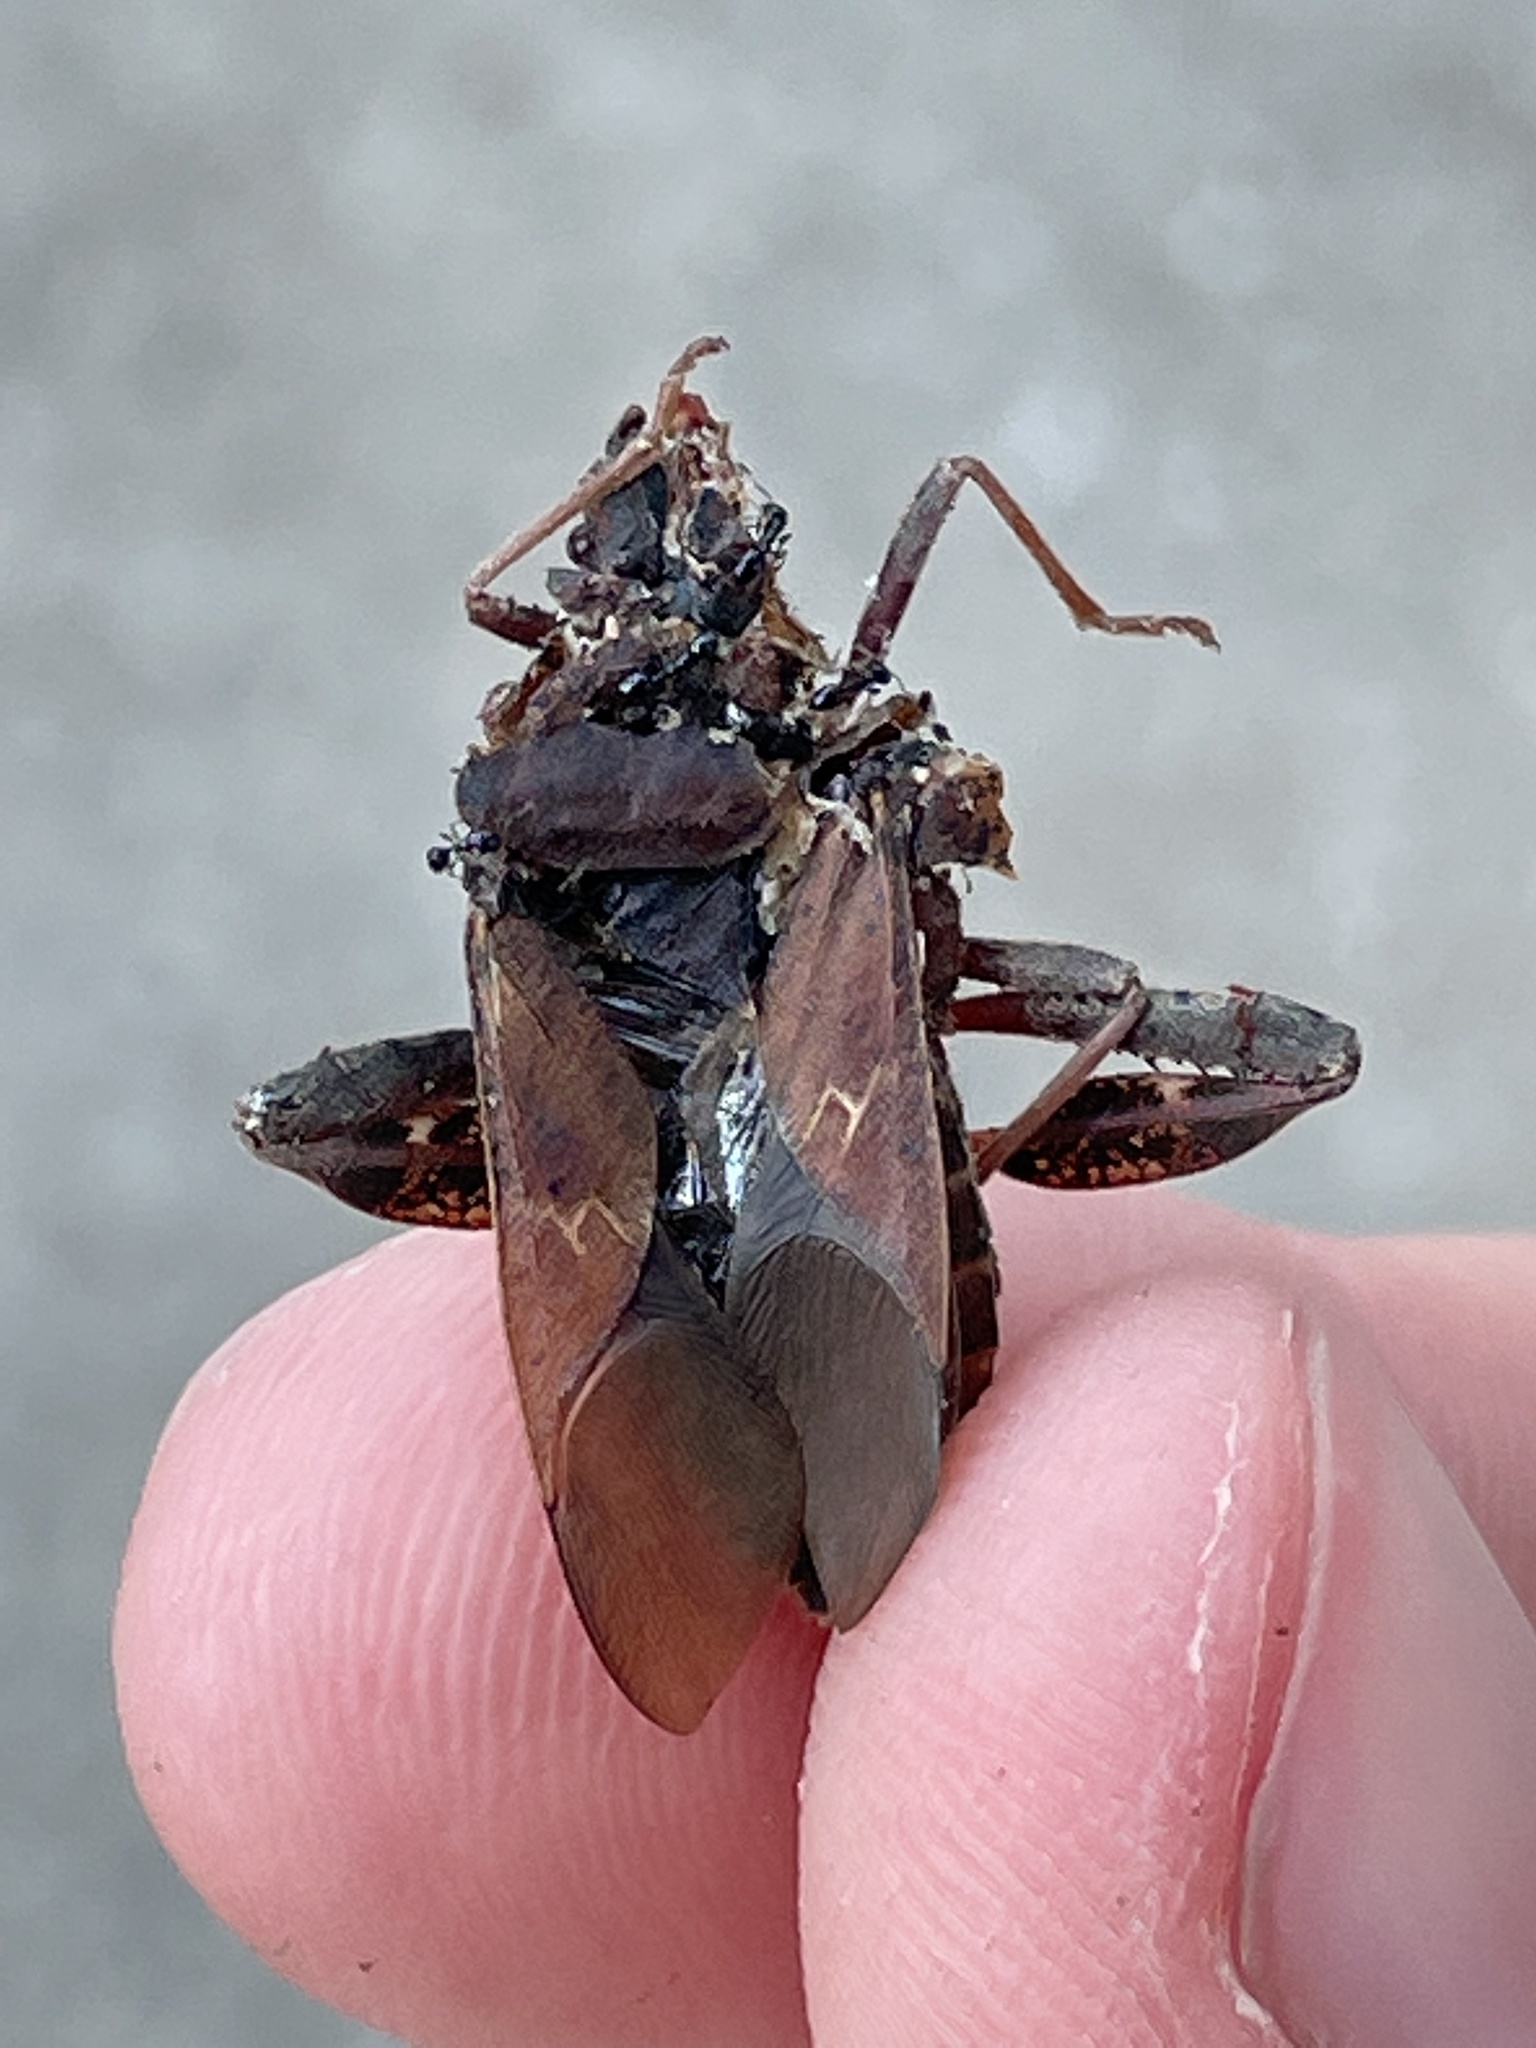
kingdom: Animalia
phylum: Arthropoda
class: Insecta
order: Hemiptera
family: Coreidae
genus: Leptoglossus
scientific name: Leptoglossus corculus
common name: Southern pine seed bug
